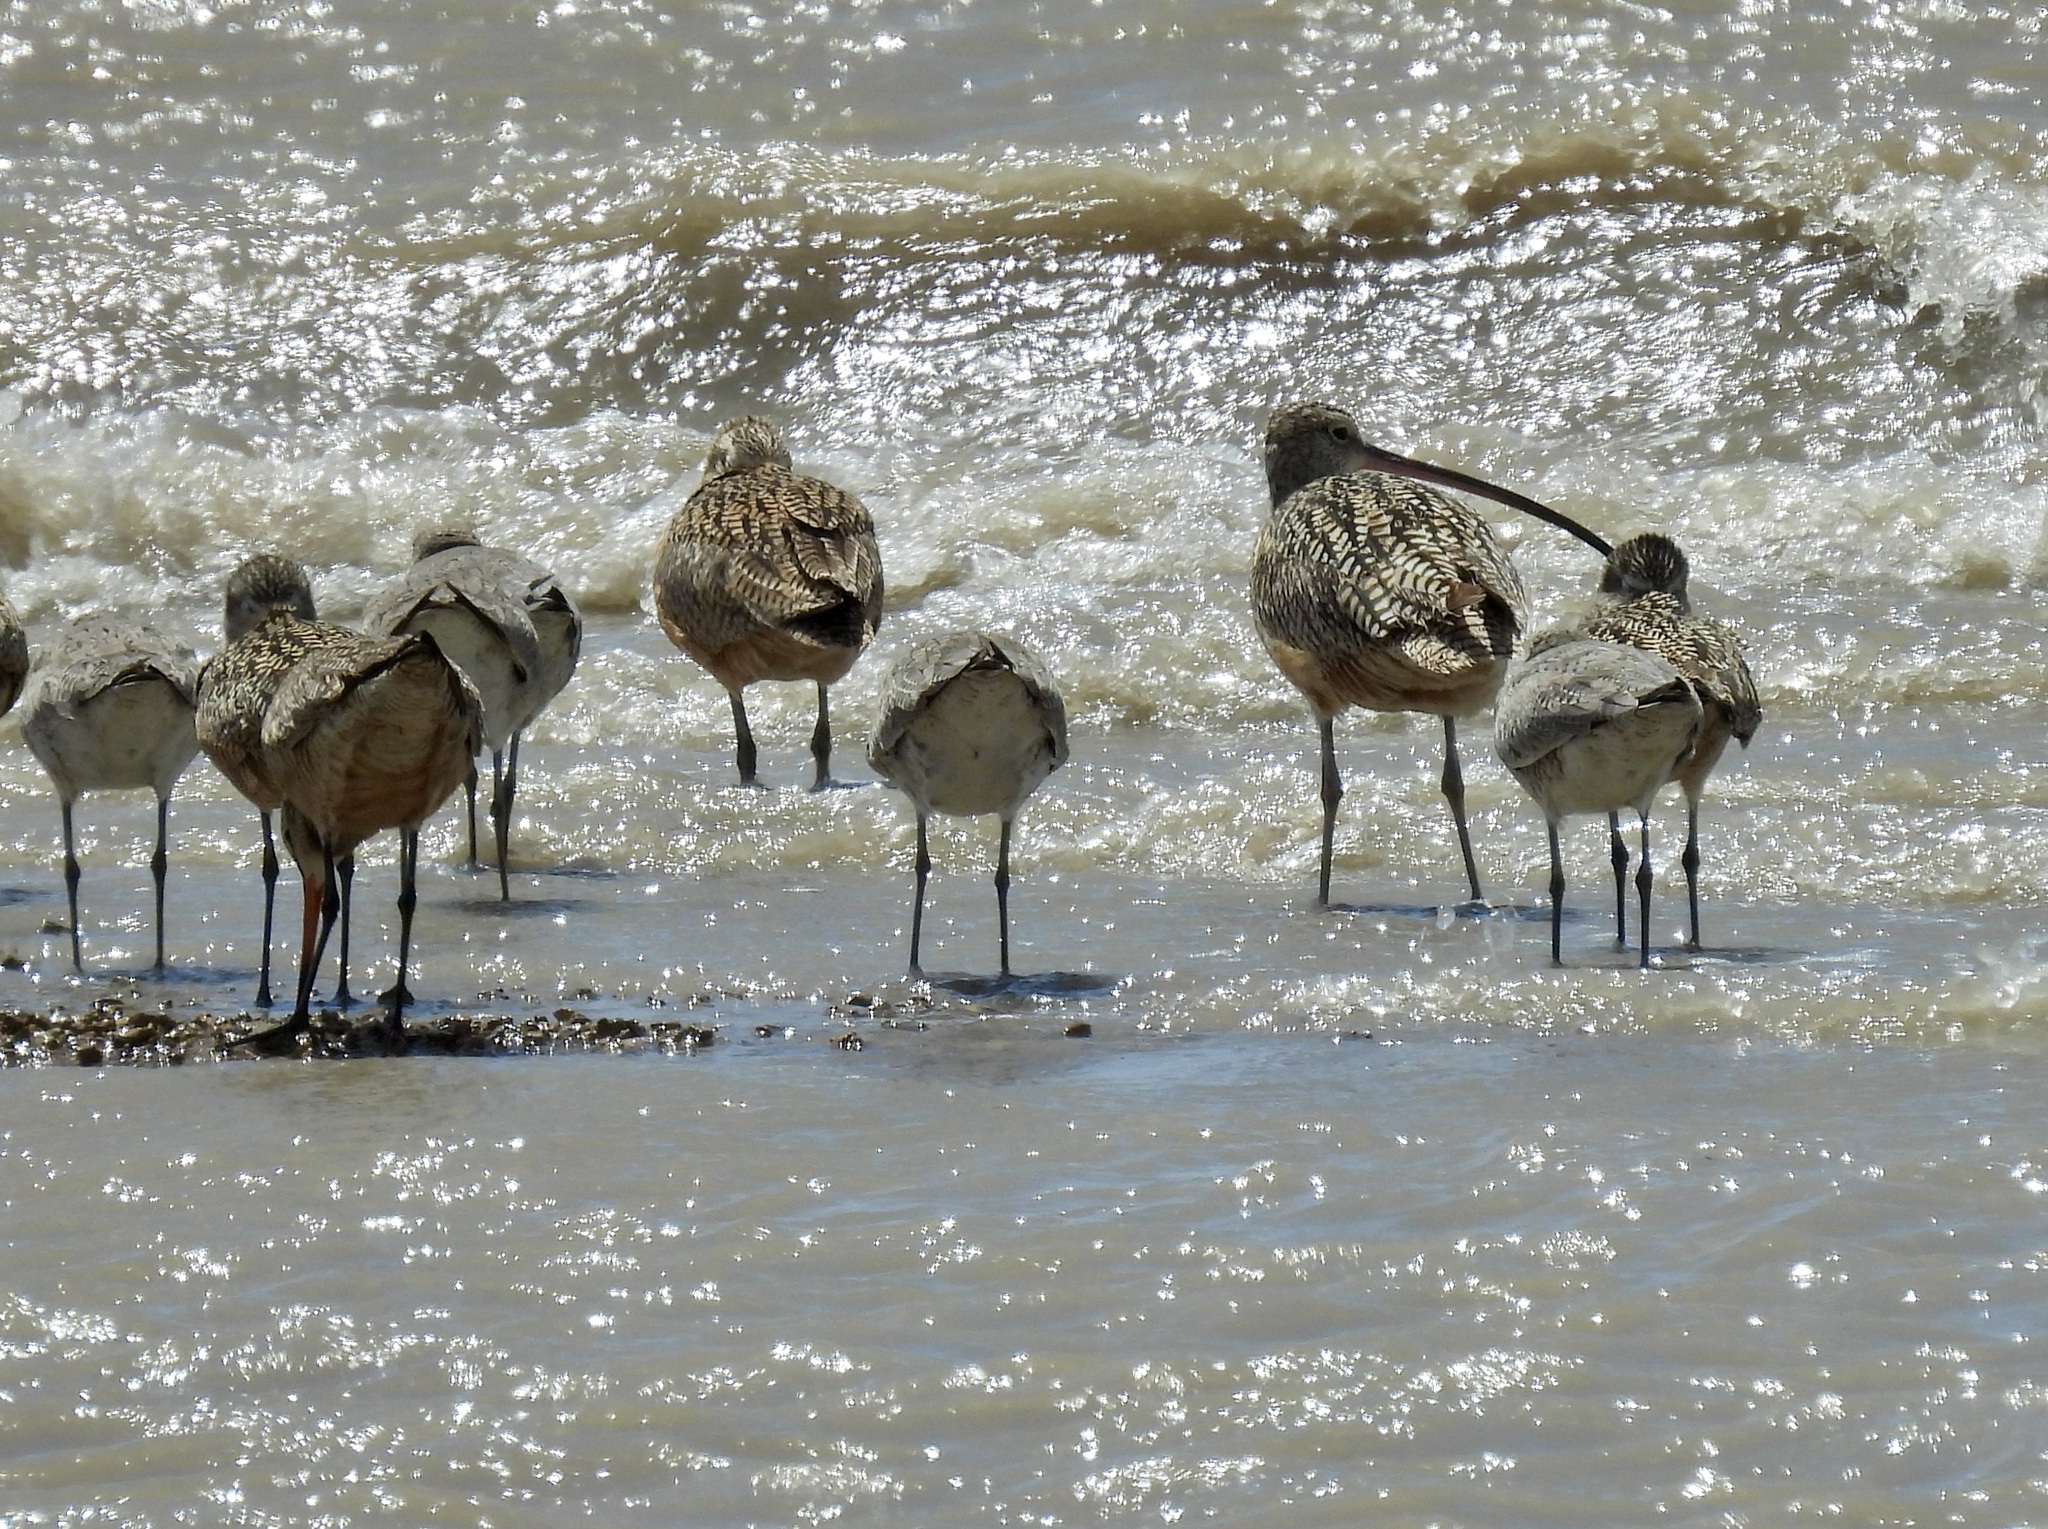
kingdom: Animalia
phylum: Chordata
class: Aves
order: Charadriiformes
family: Scolopacidae
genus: Numenius
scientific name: Numenius americanus
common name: Long-billed curlew
